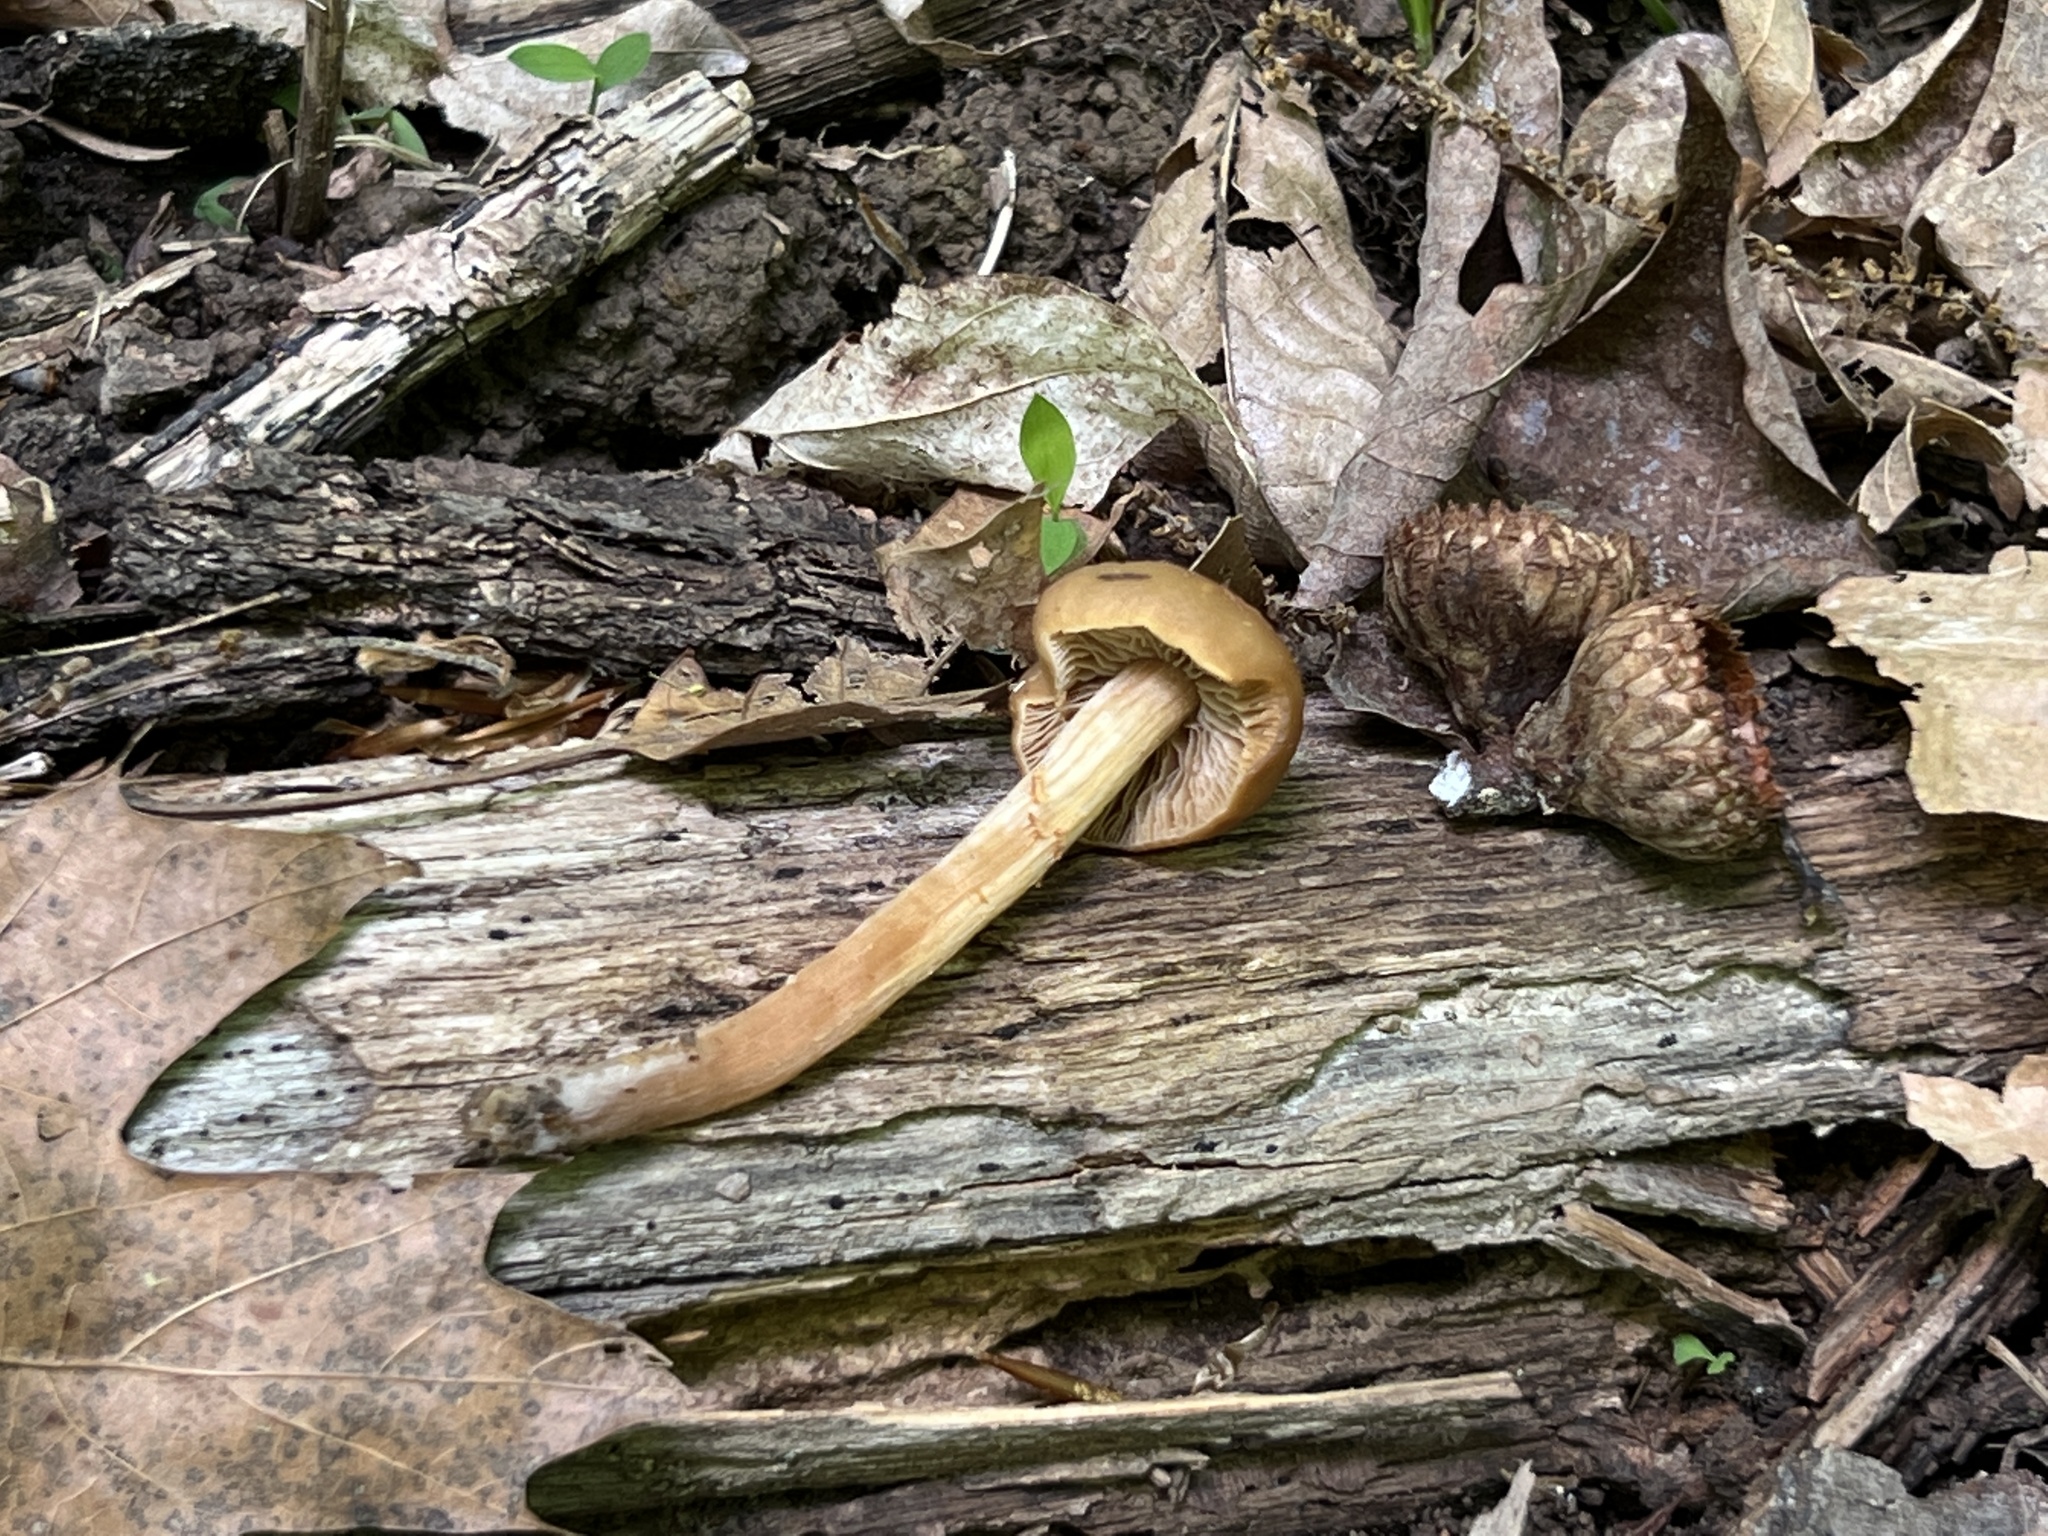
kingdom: Fungi
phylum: Basidiomycota
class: Agaricomycetes
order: Agaricales
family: Strophariaceae
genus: Kuehneromyces
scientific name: Kuehneromyces marginellus
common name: Sheathed woodtuft
